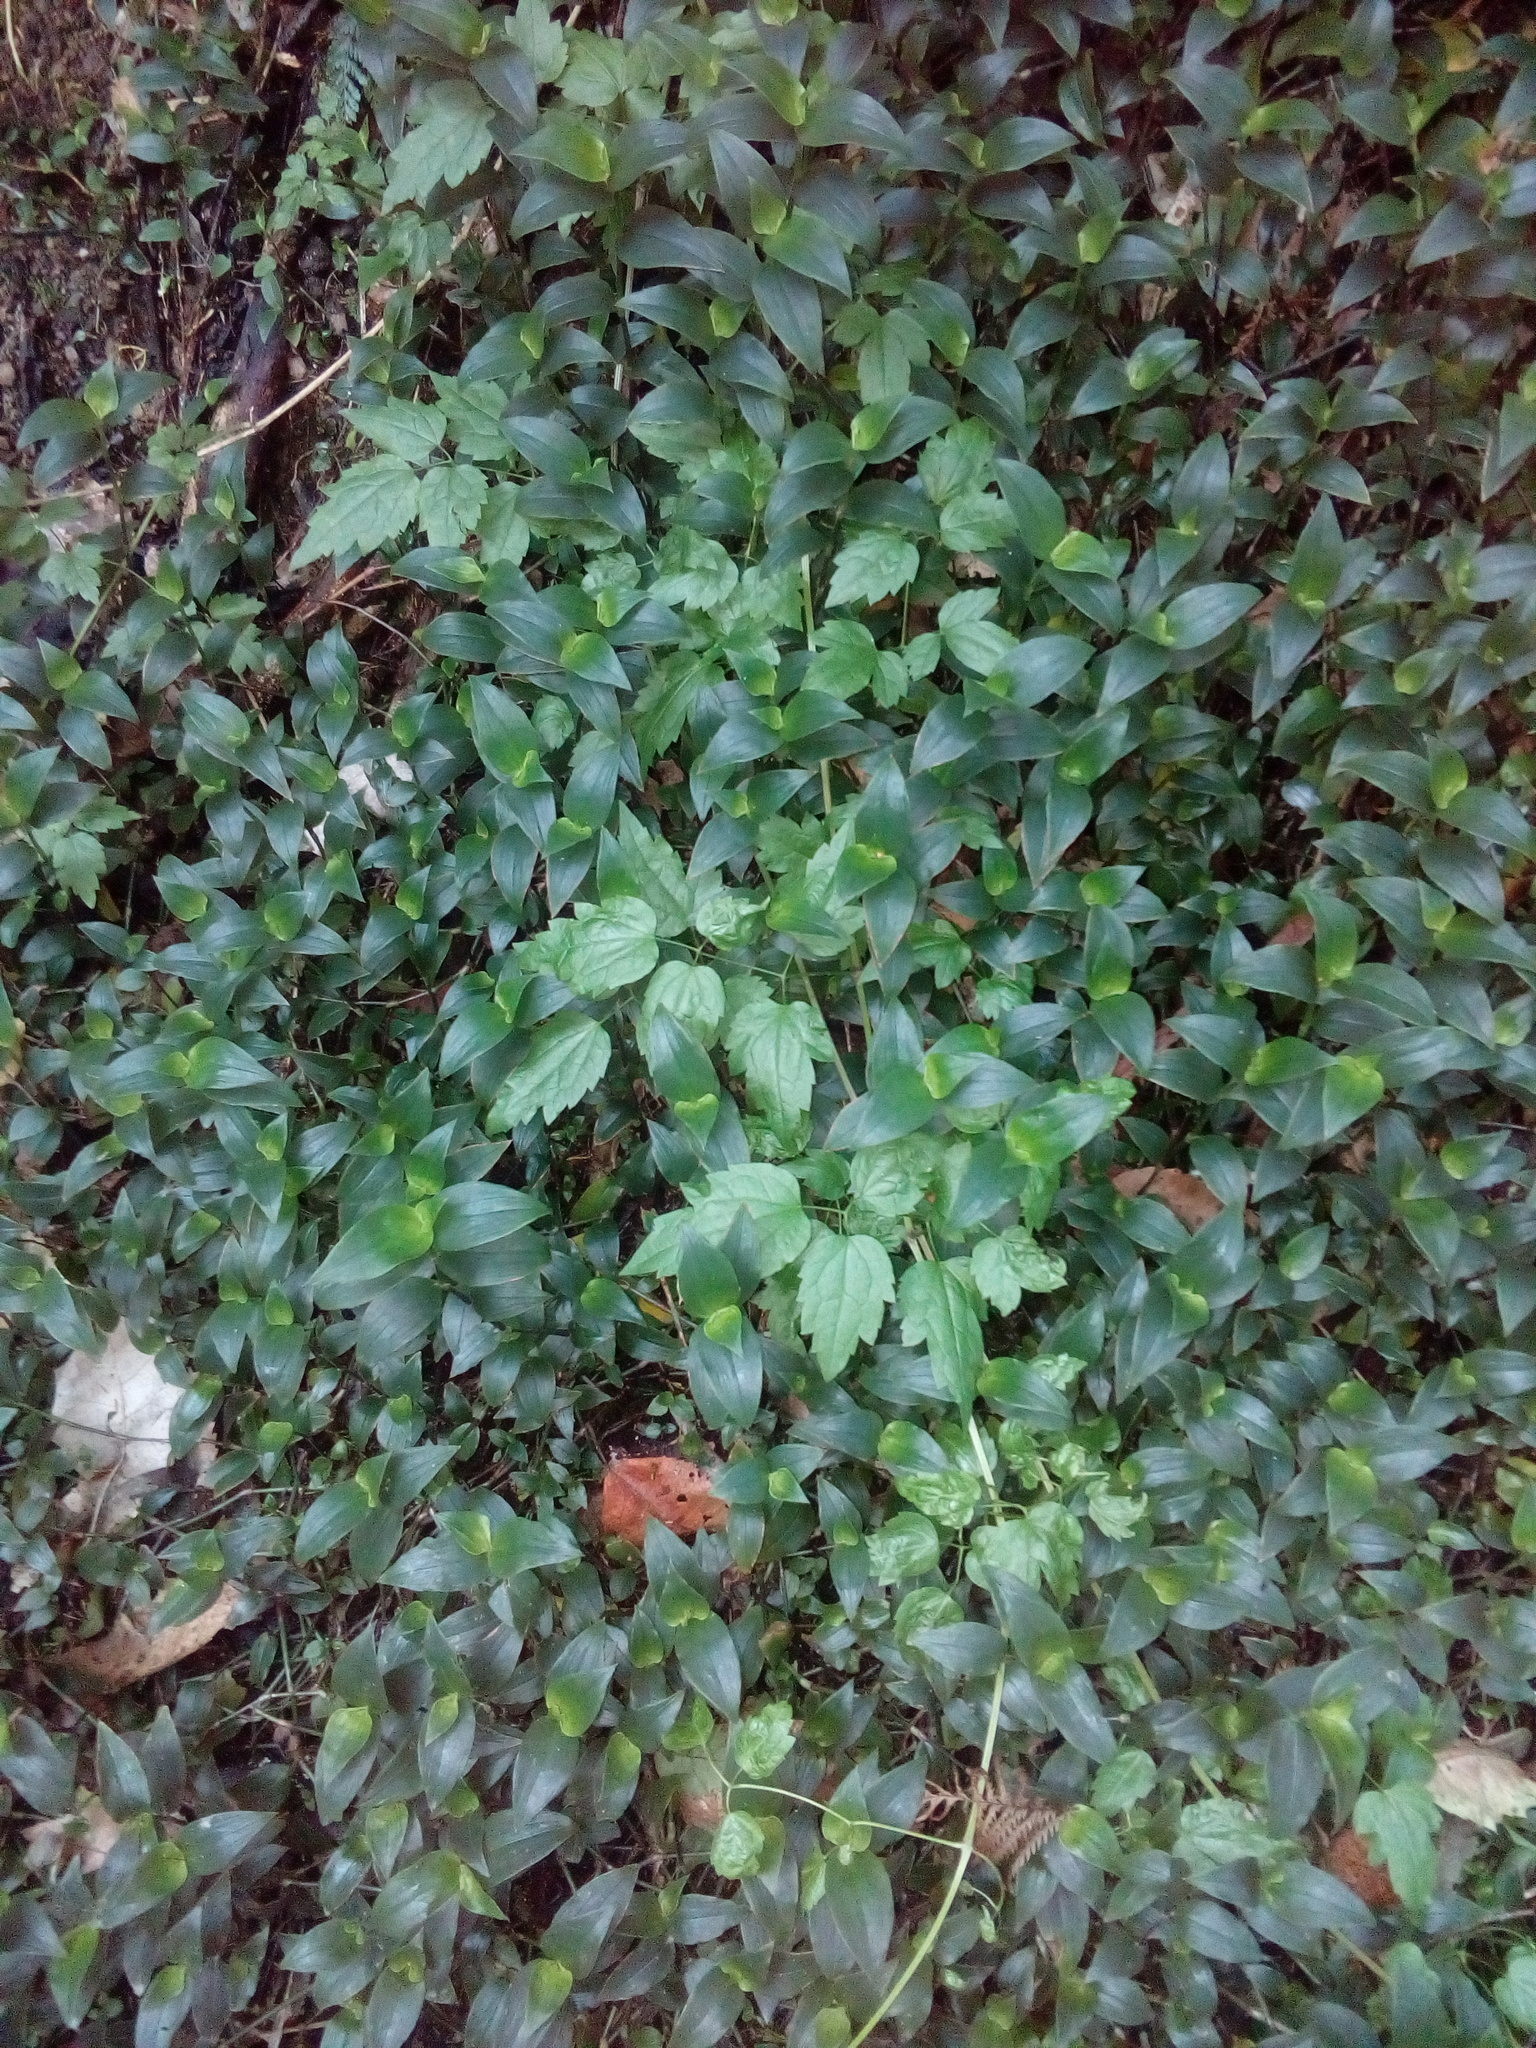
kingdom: Plantae
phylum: Tracheophyta
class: Magnoliopsida
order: Ranunculales
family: Ranunculaceae
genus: Clematis
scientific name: Clematis vitalba
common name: Evergreen clematis
